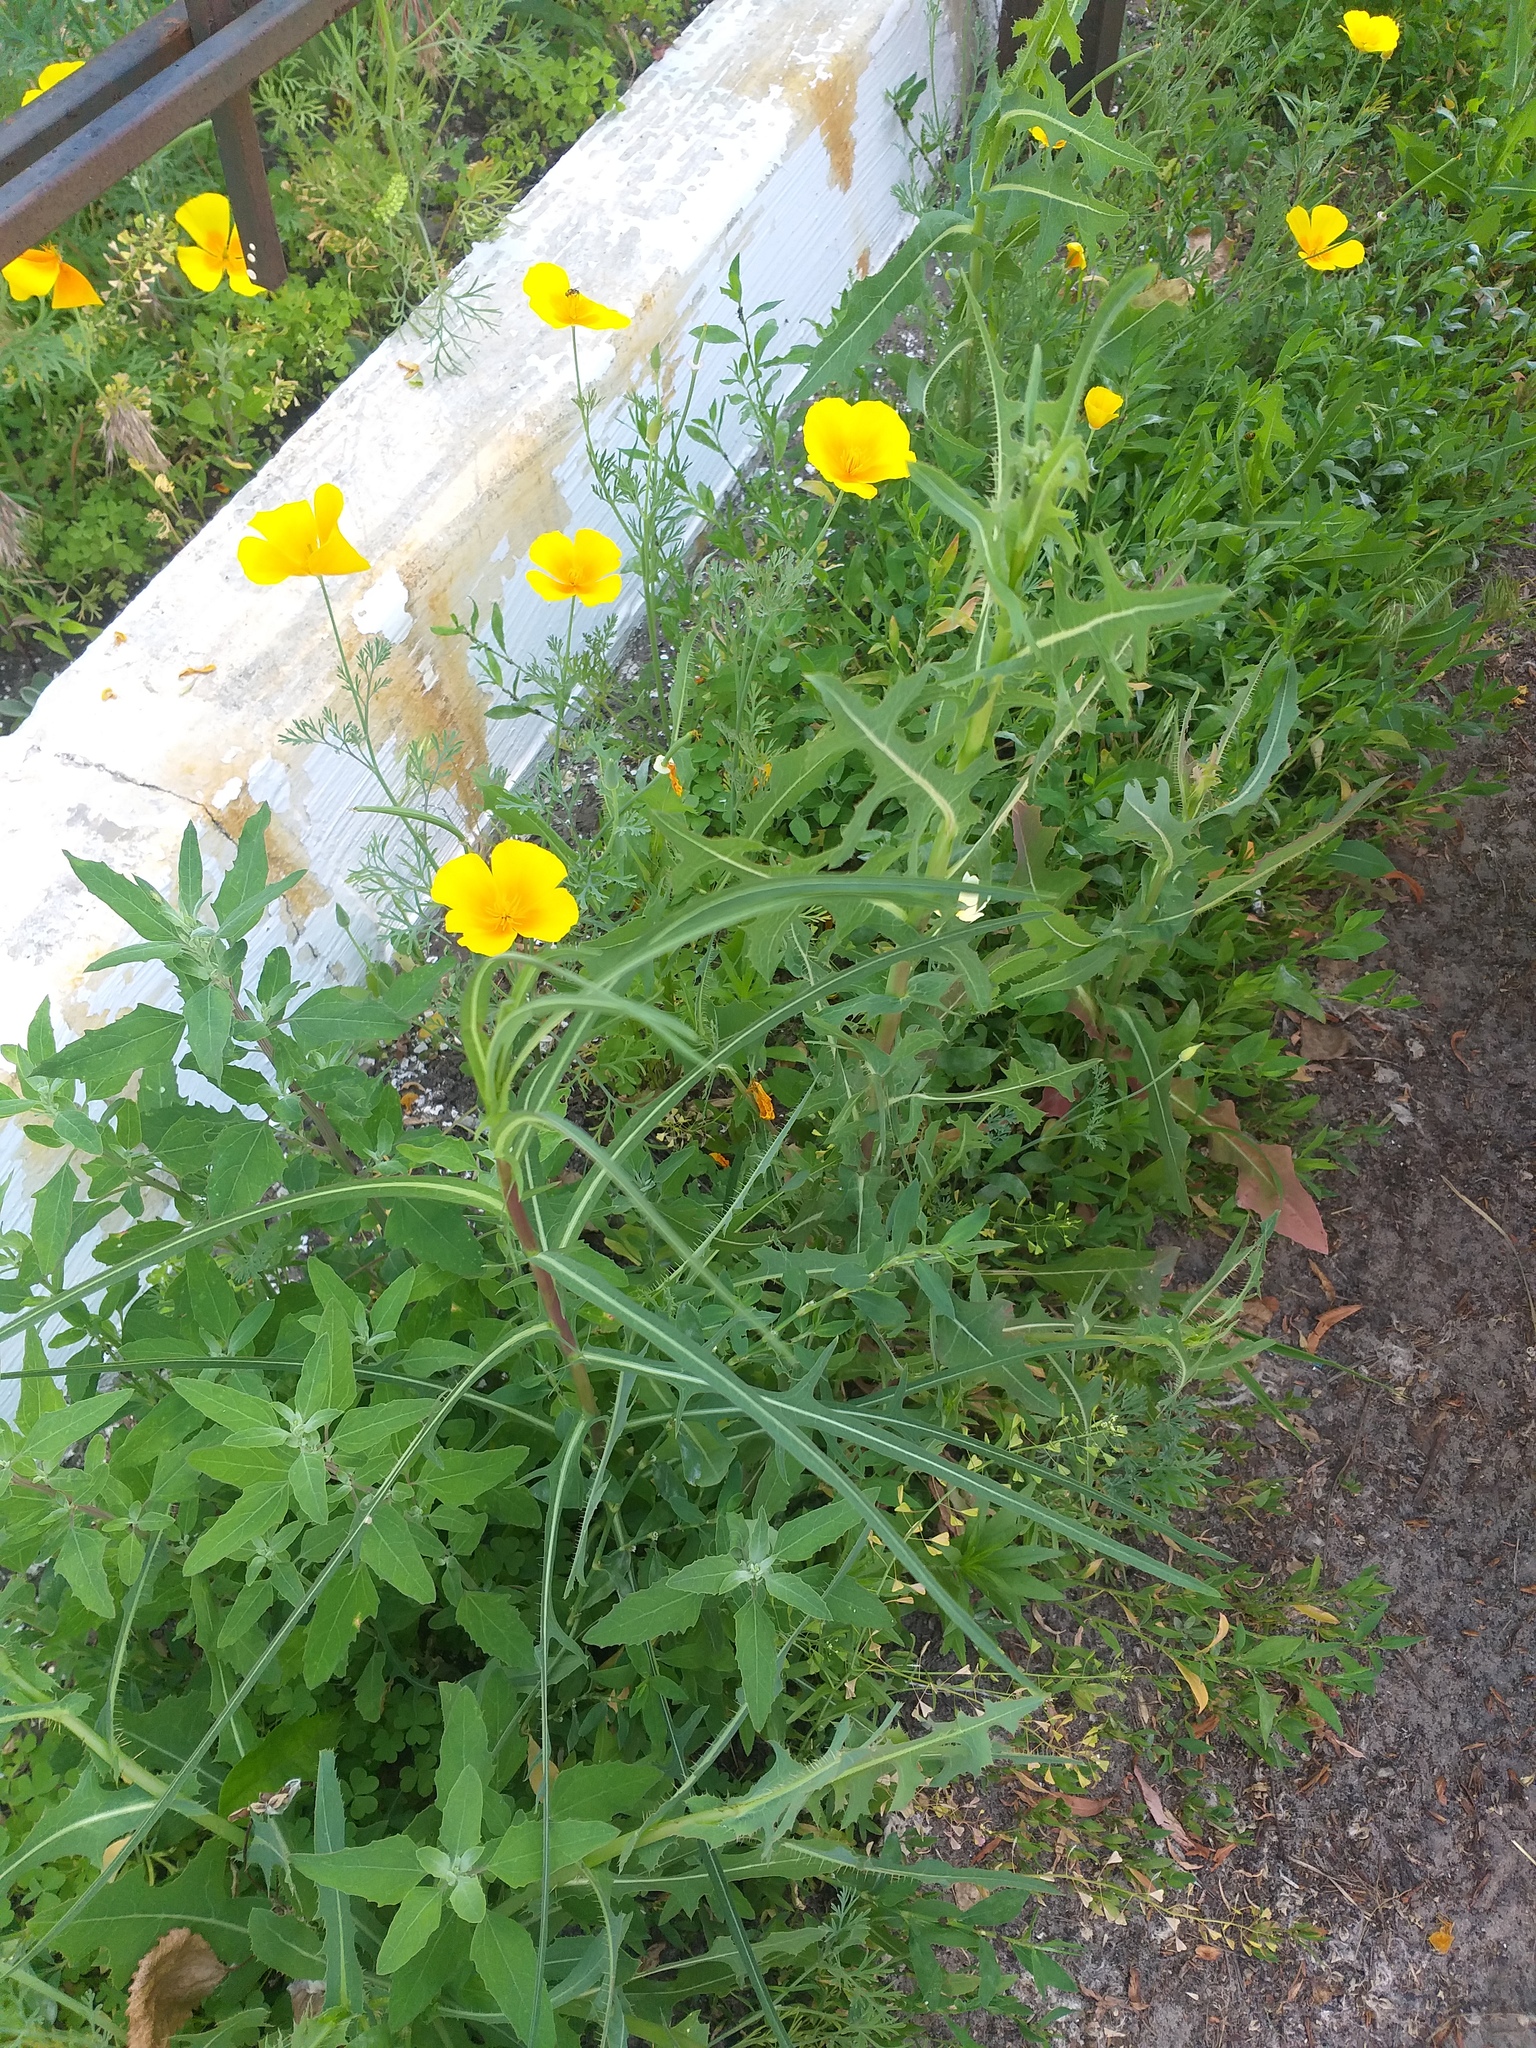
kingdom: Plantae
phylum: Tracheophyta
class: Magnoliopsida
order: Ranunculales
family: Papaveraceae
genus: Eschscholzia
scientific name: Eschscholzia californica
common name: California poppy
